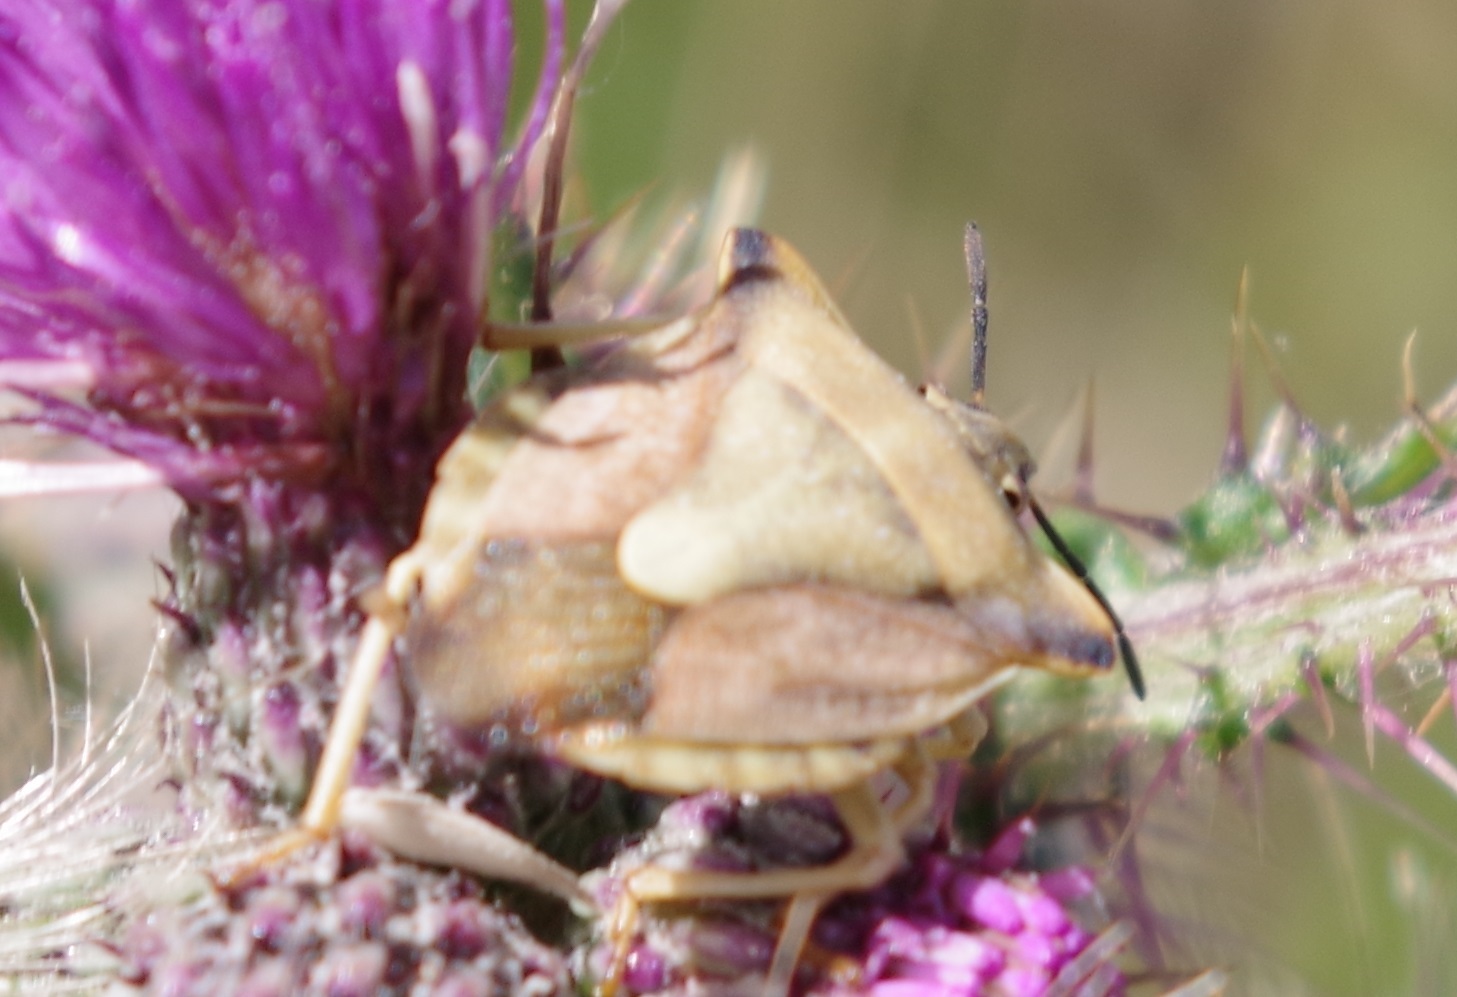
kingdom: Animalia
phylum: Arthropoda
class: Insecta
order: Hemiptera
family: Pentatomidae
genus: Carpocoris
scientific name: Carpocoris fuscispinus
